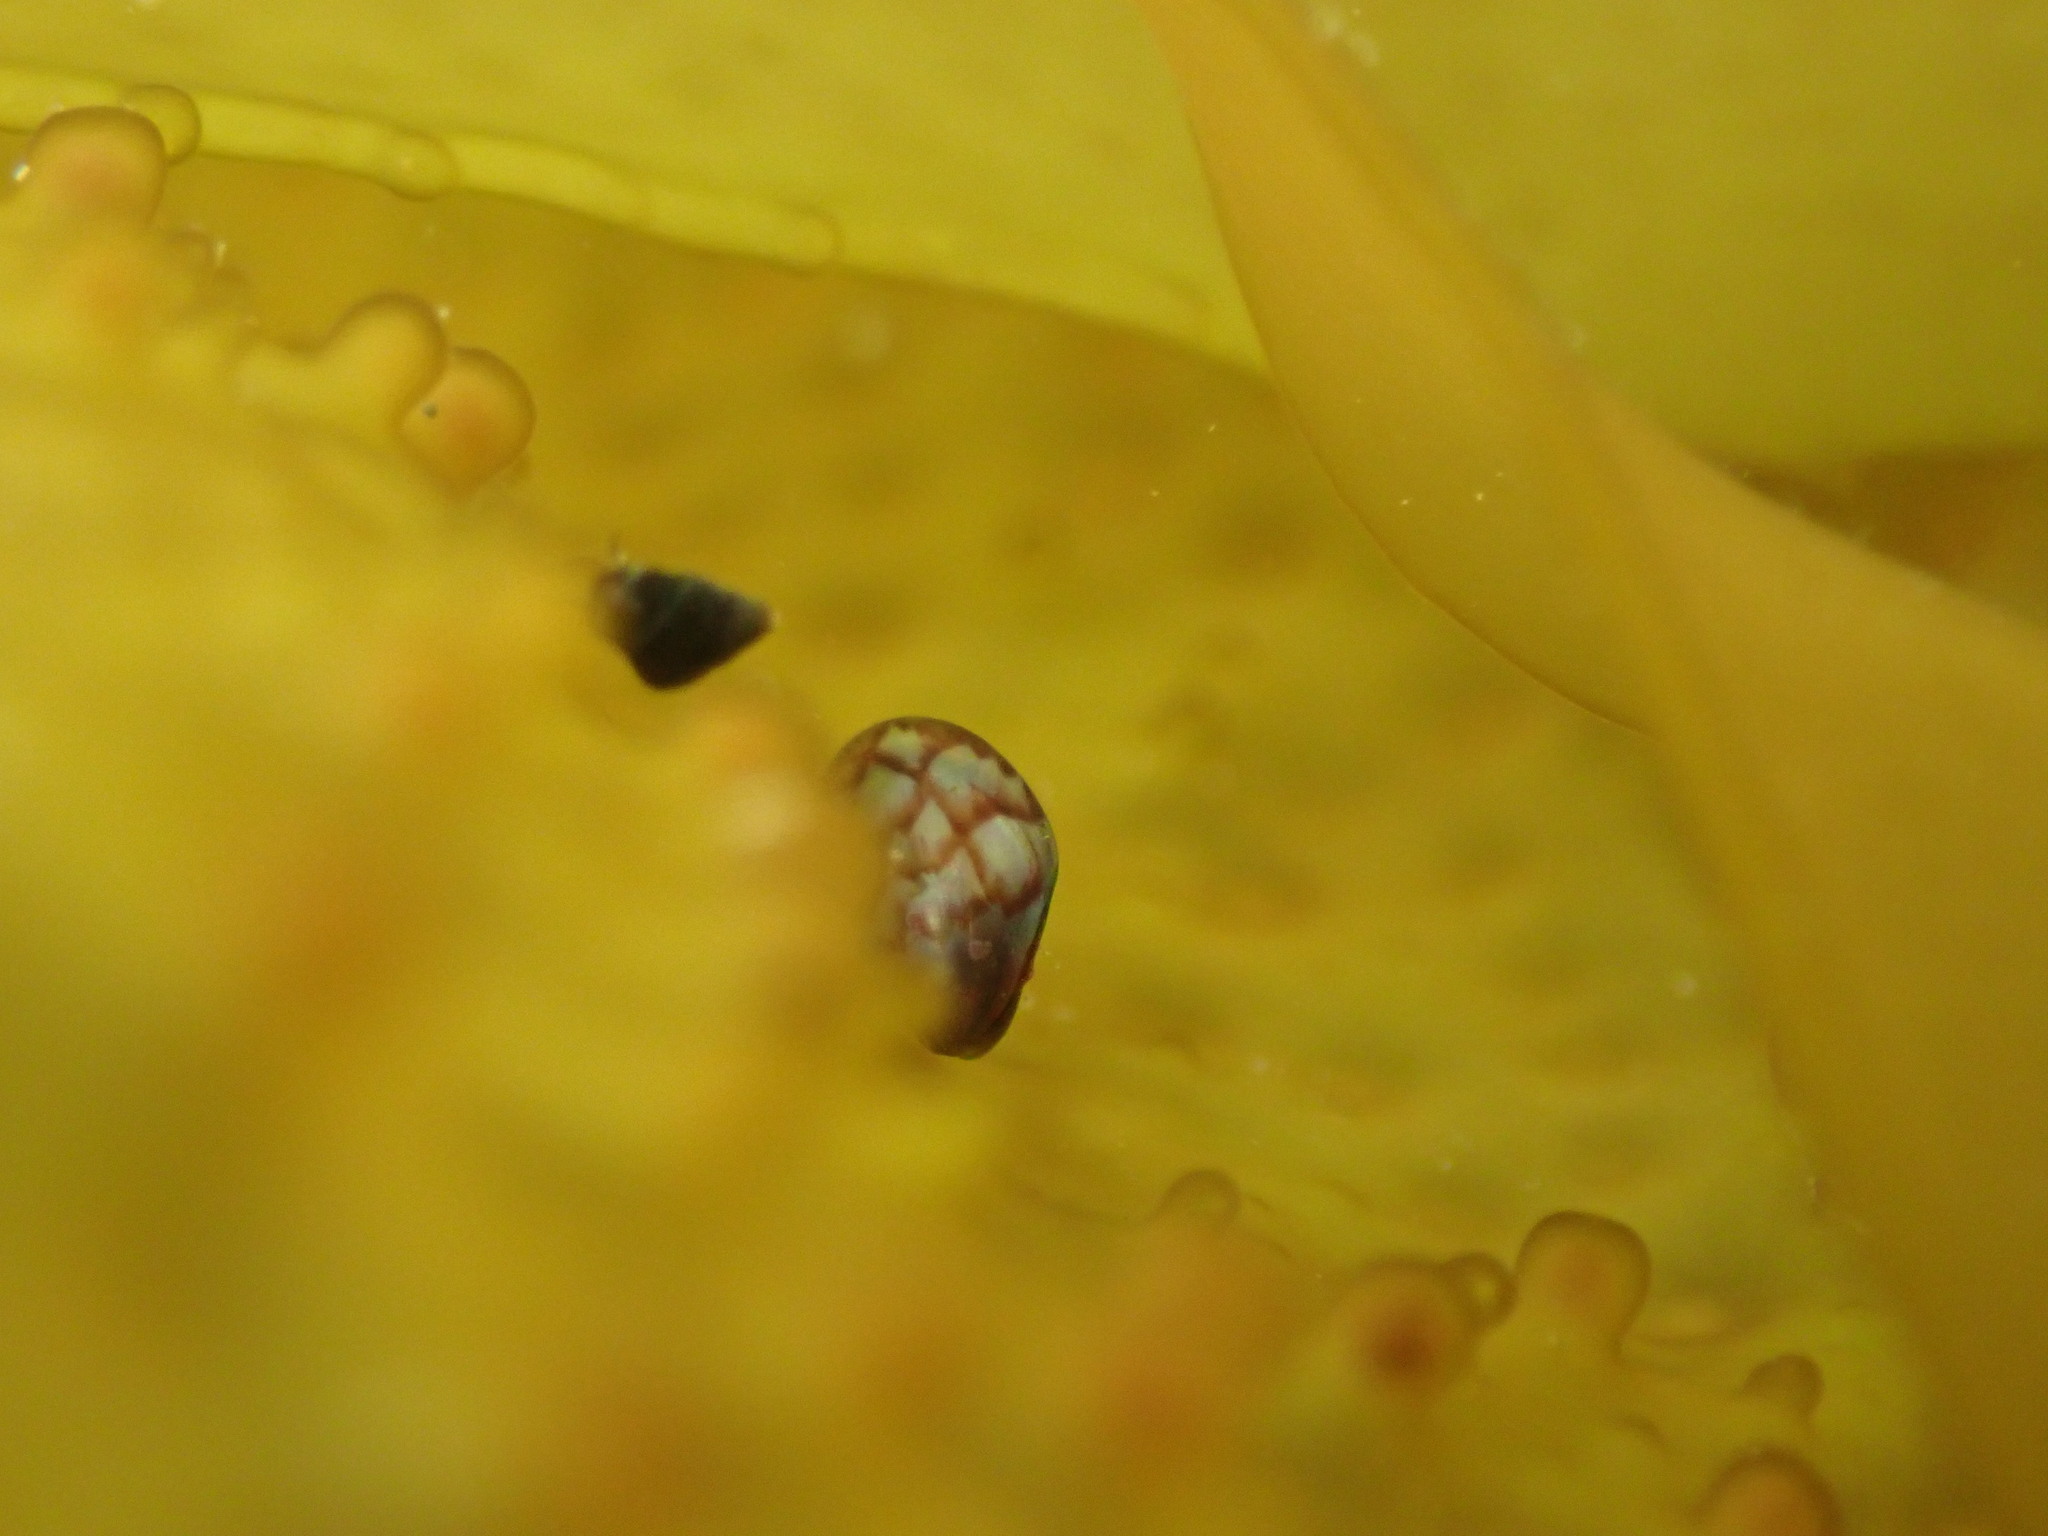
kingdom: Animalia
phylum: Mollusca
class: Bivalvia
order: Mytilida
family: Mytilidae
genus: Perna
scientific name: Perna canaliculus
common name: New zealand greenshelltm
